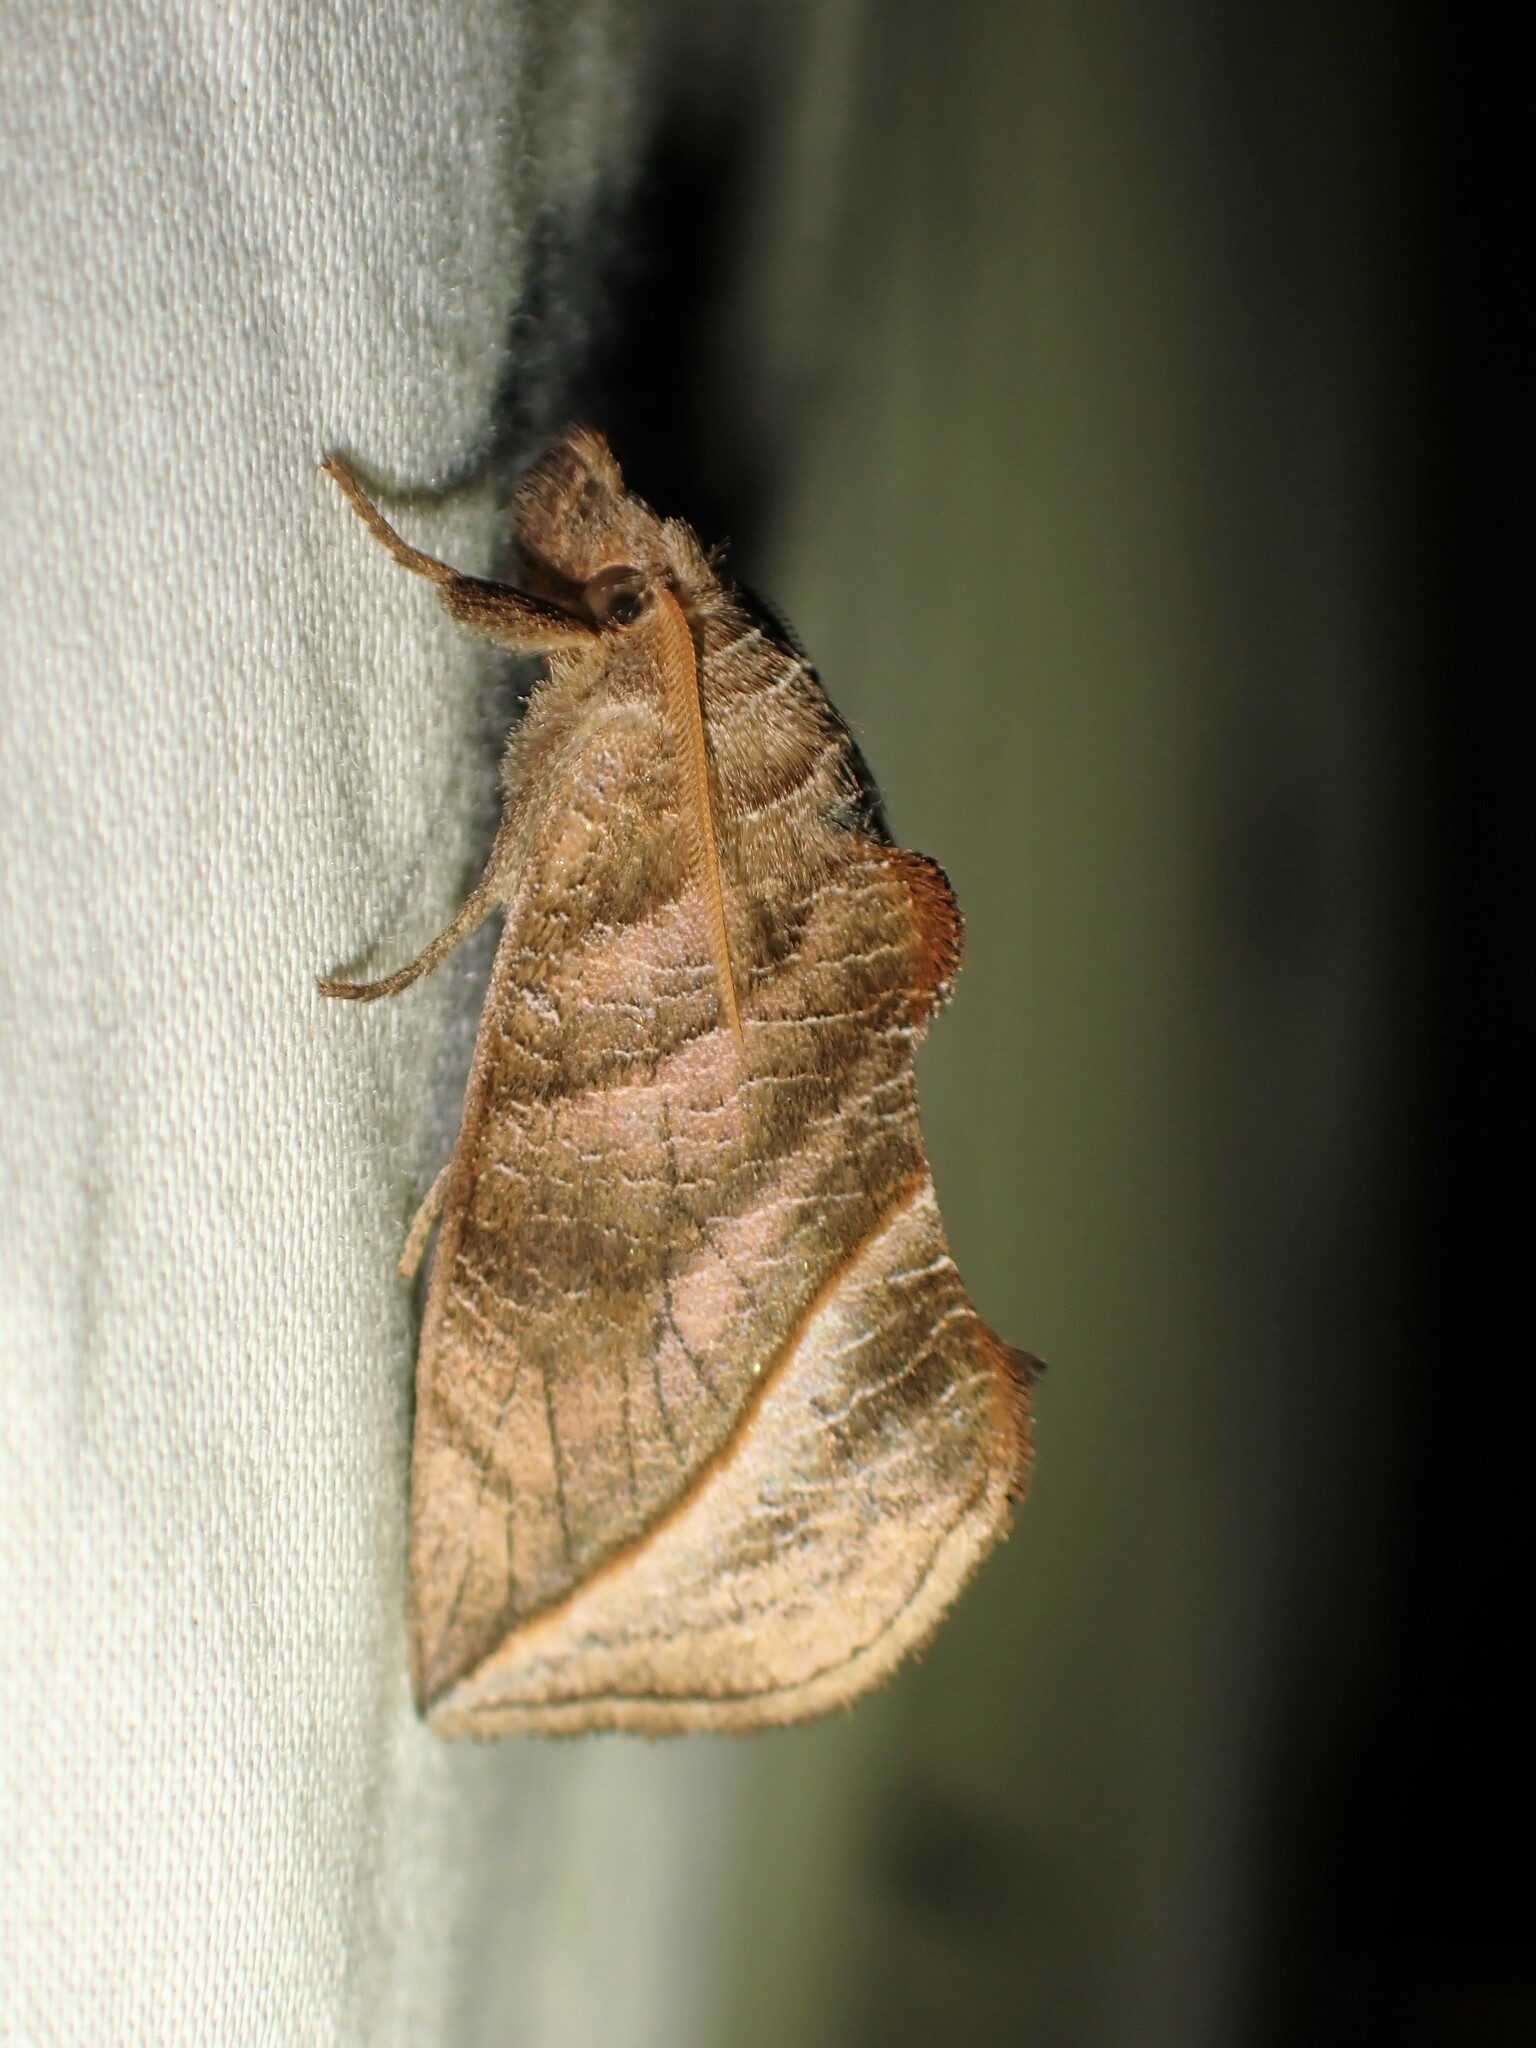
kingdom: Animalia
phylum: Arthropoda
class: Insecta
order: Lepidoptera
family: Erebidae
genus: Calyptra
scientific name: Calyptra canadensis
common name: Canadian owlet
